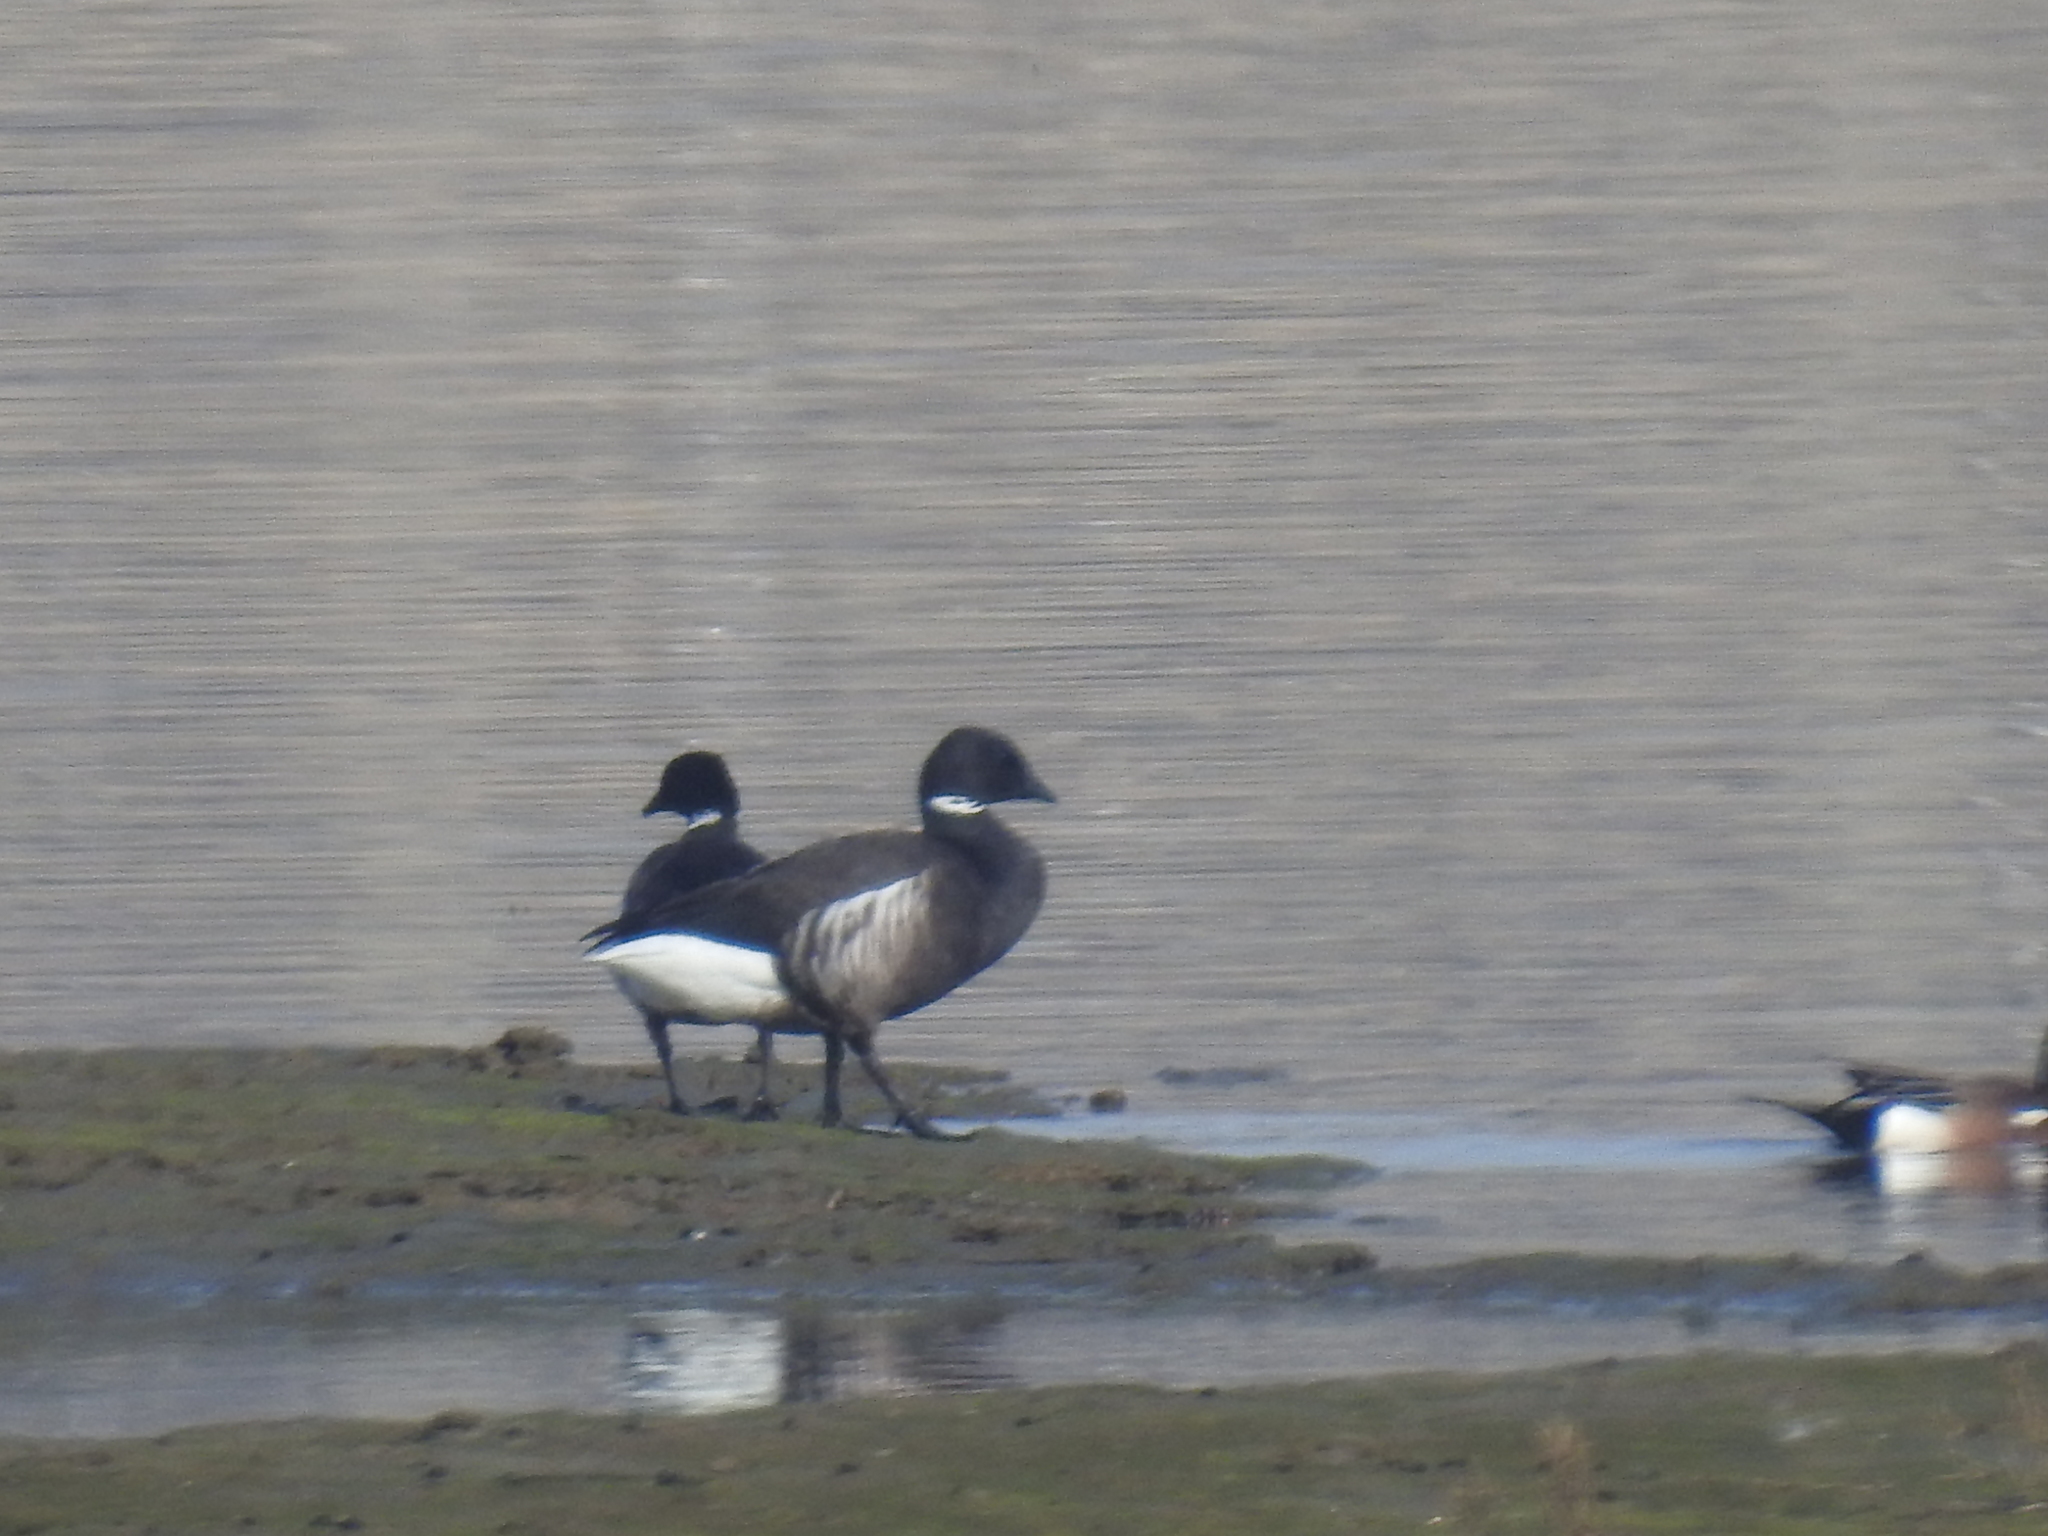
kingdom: Animalia
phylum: Chordata
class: Aves
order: Anseriformes
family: Anatidae
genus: Branta
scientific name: Branta bernicla
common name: Brant goose
